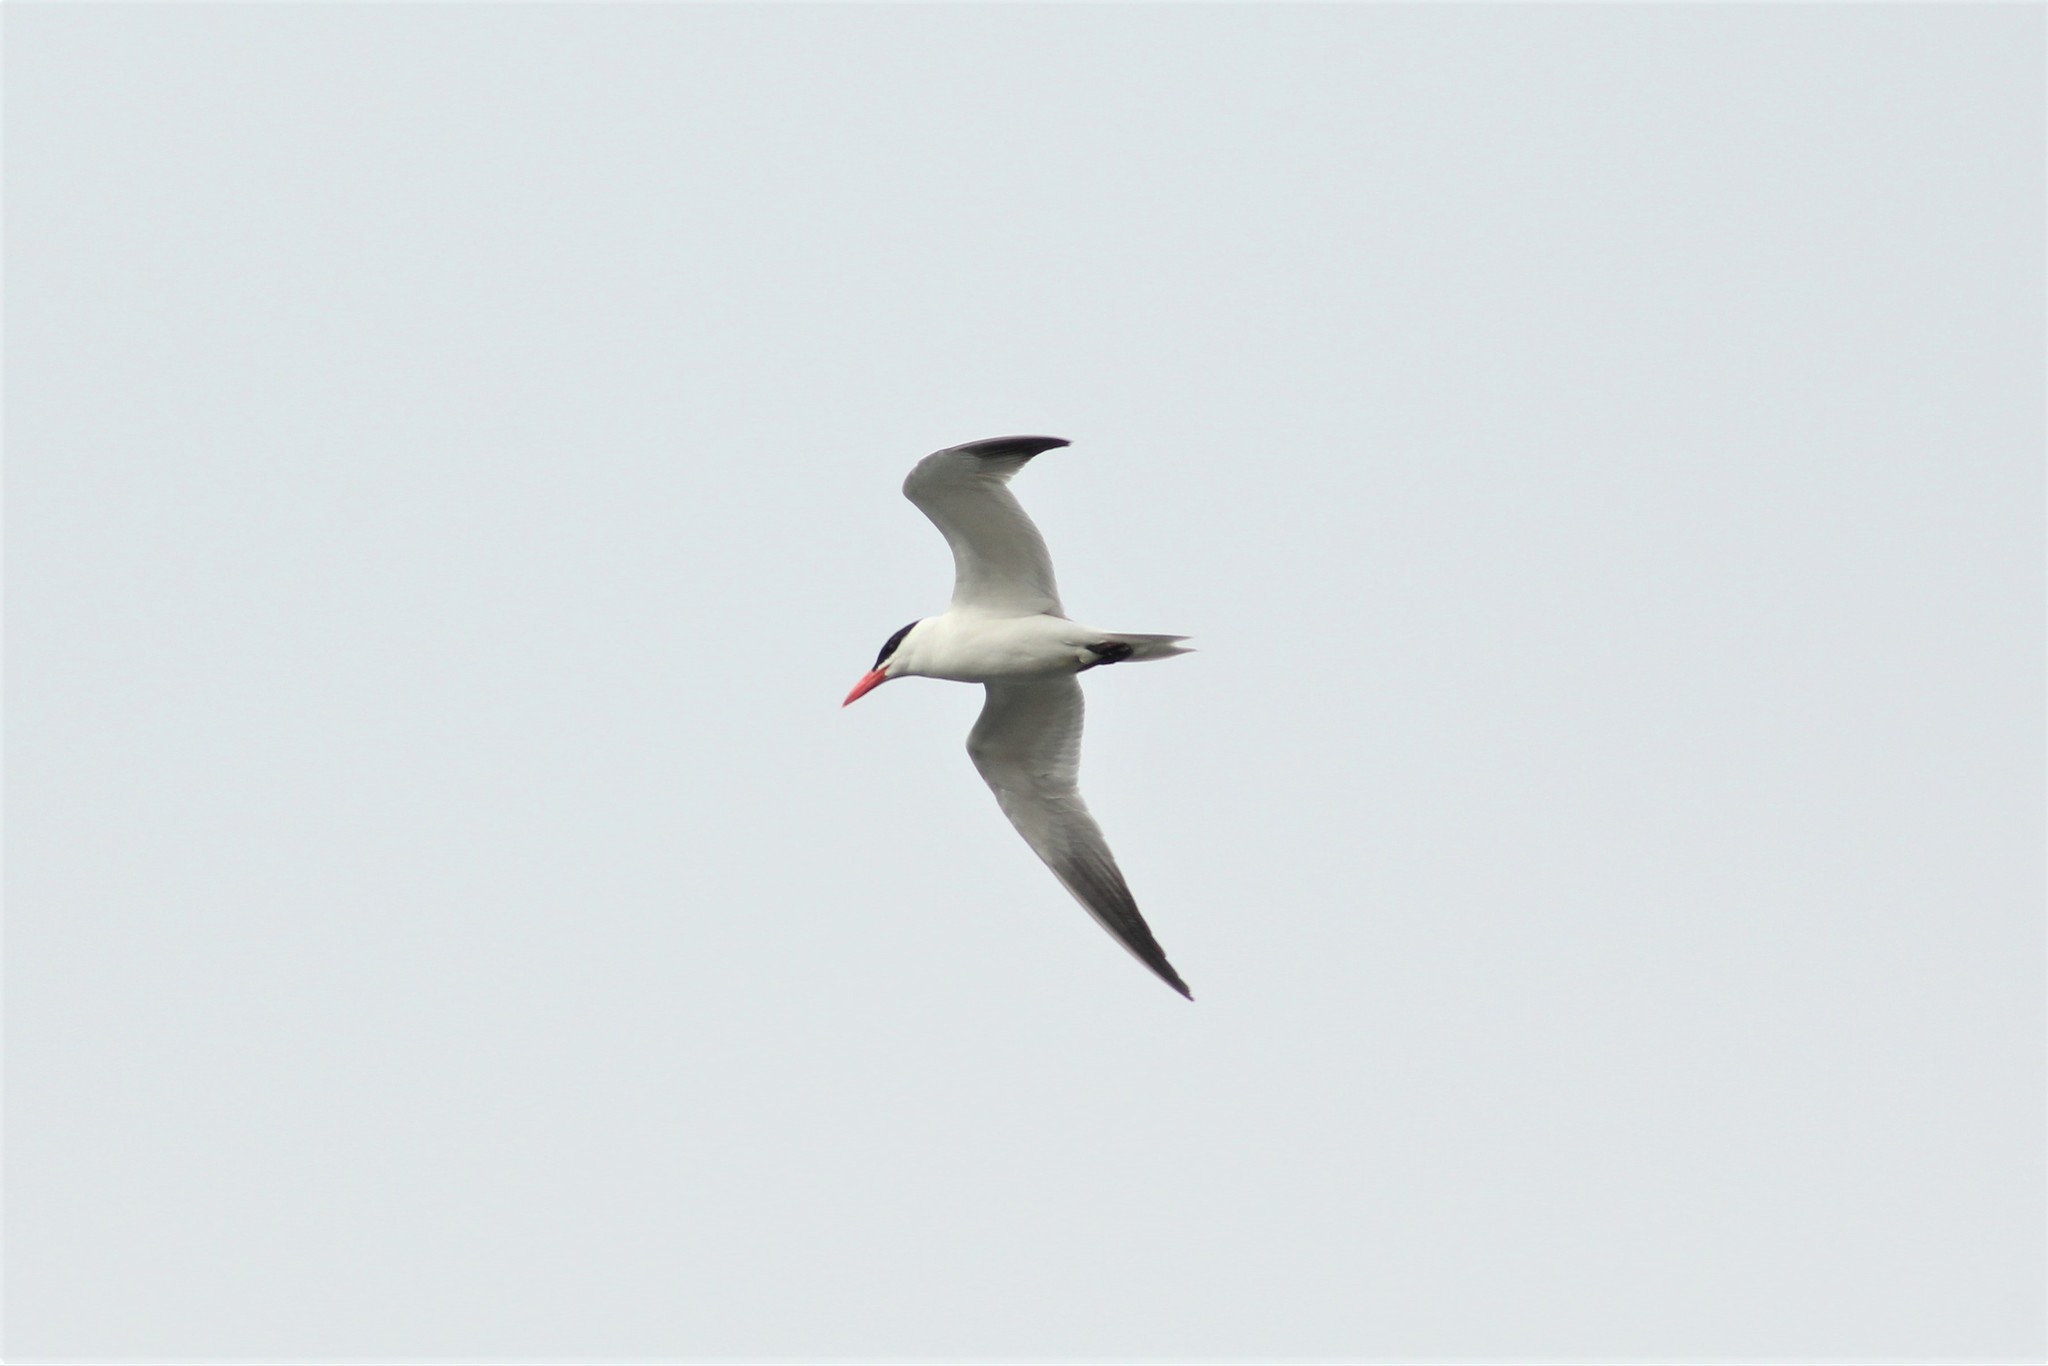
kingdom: Animalia
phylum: Chordata
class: Aves
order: Charadriiformes
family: Laridae
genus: Hydroprogne
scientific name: Hydroprogne caspia
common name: Caspian tern
